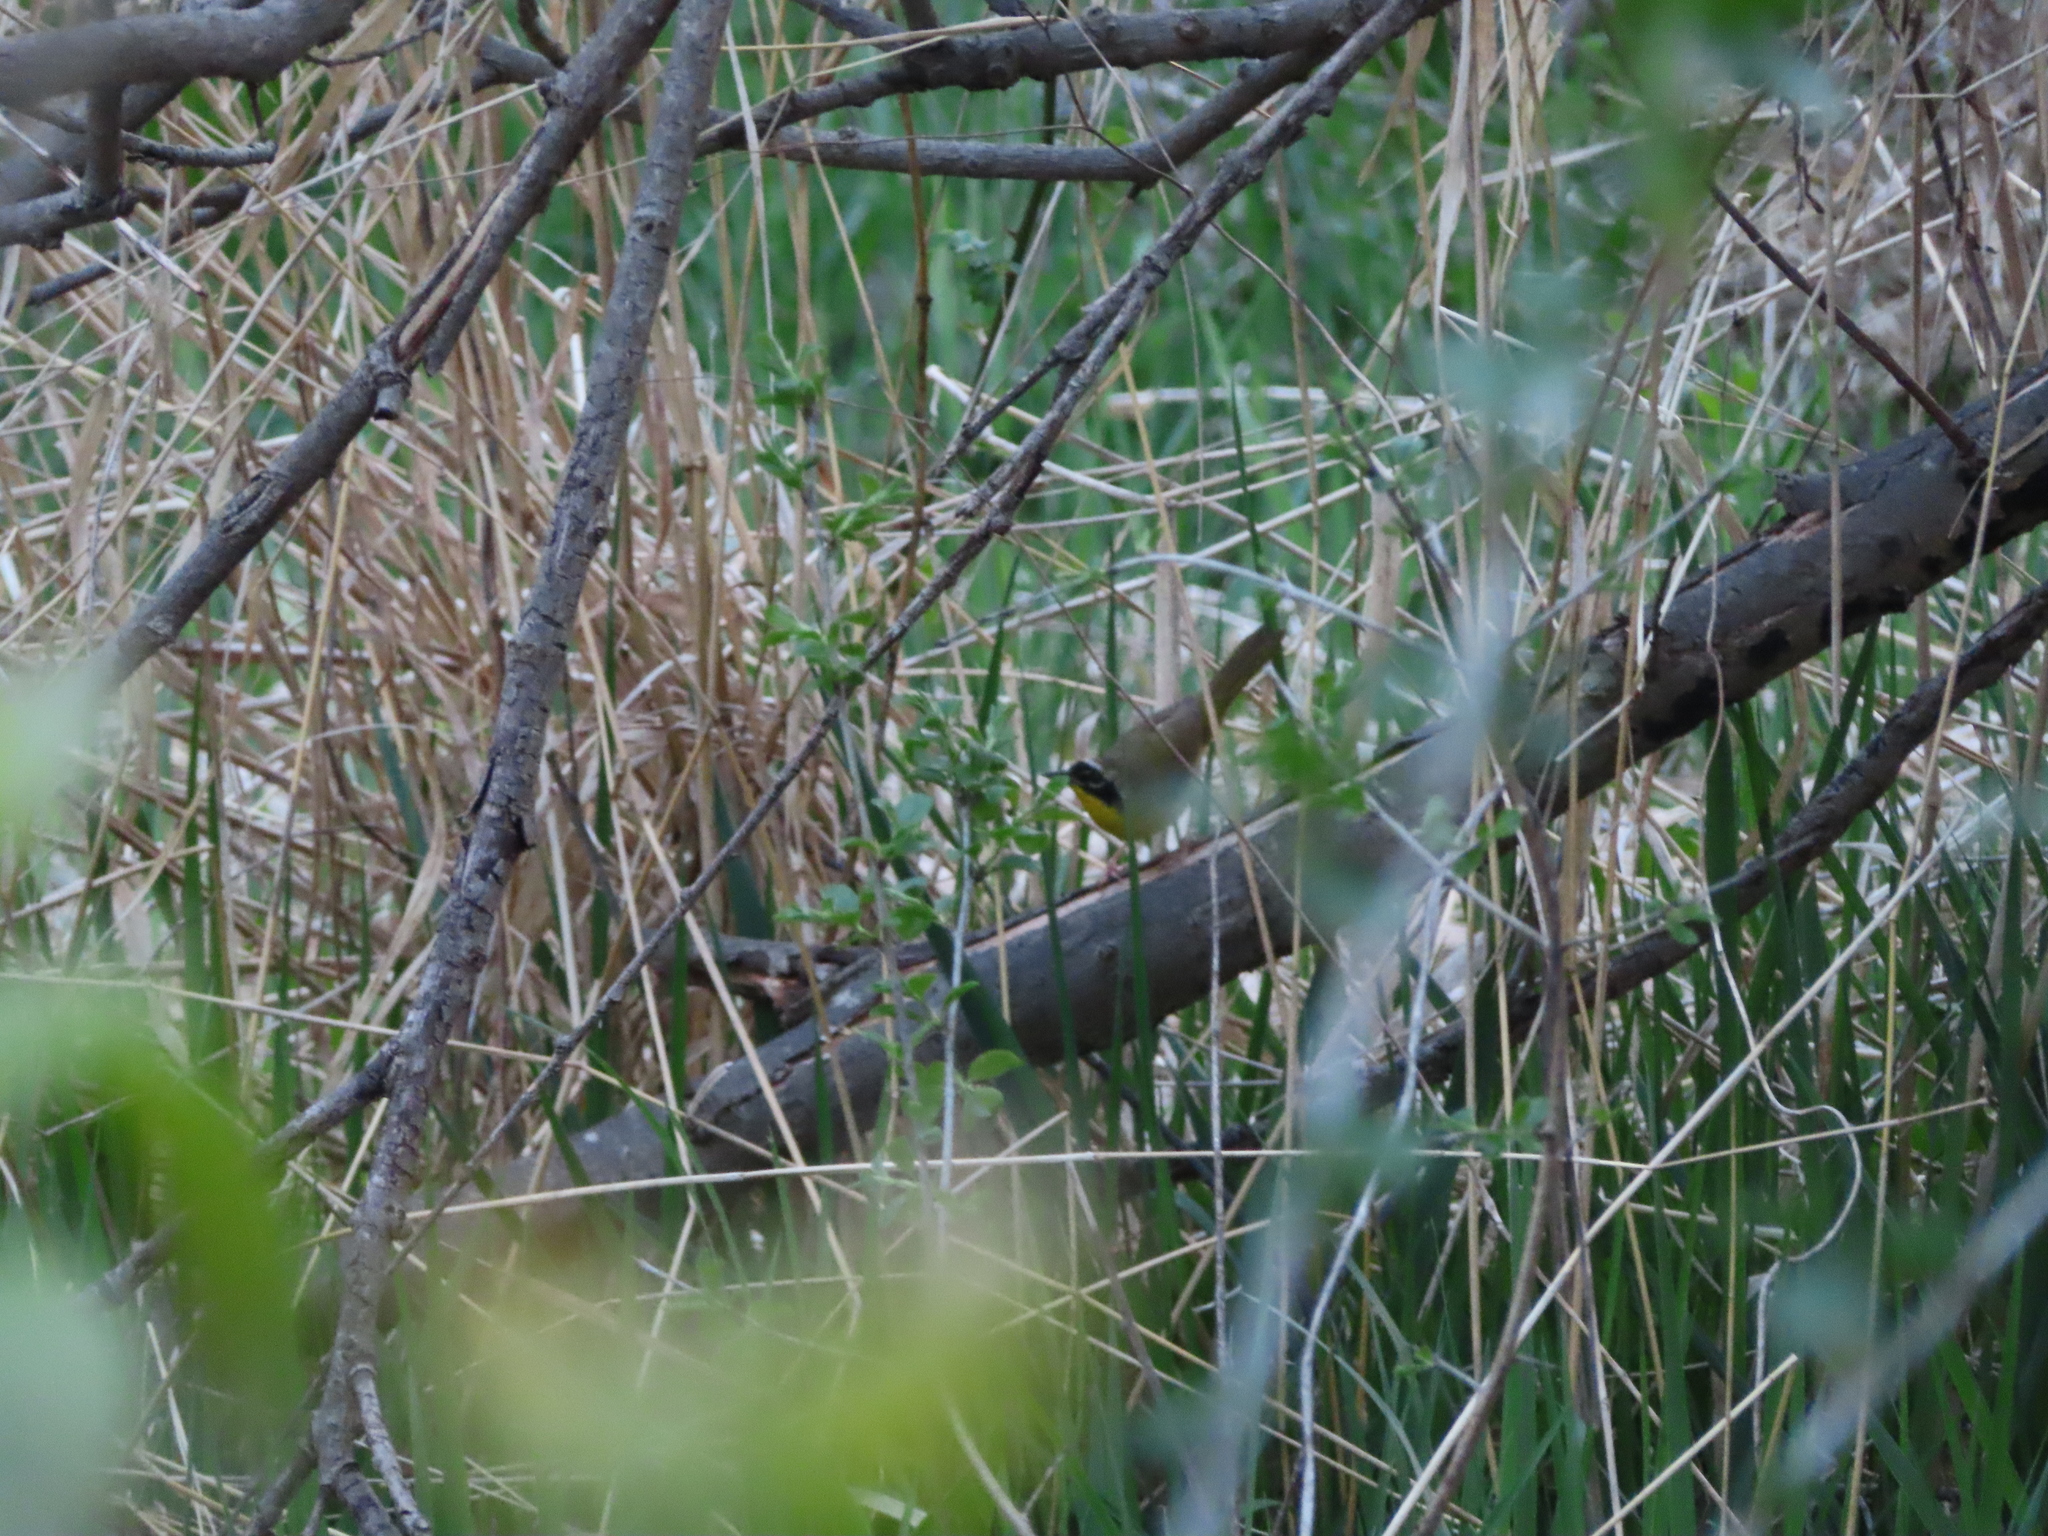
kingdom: Animalia
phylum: Chordata
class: Aves
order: Passeriformes
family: Parulidae
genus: Geothlypis
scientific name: Geothlypis trichas
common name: Common yellowthroat
